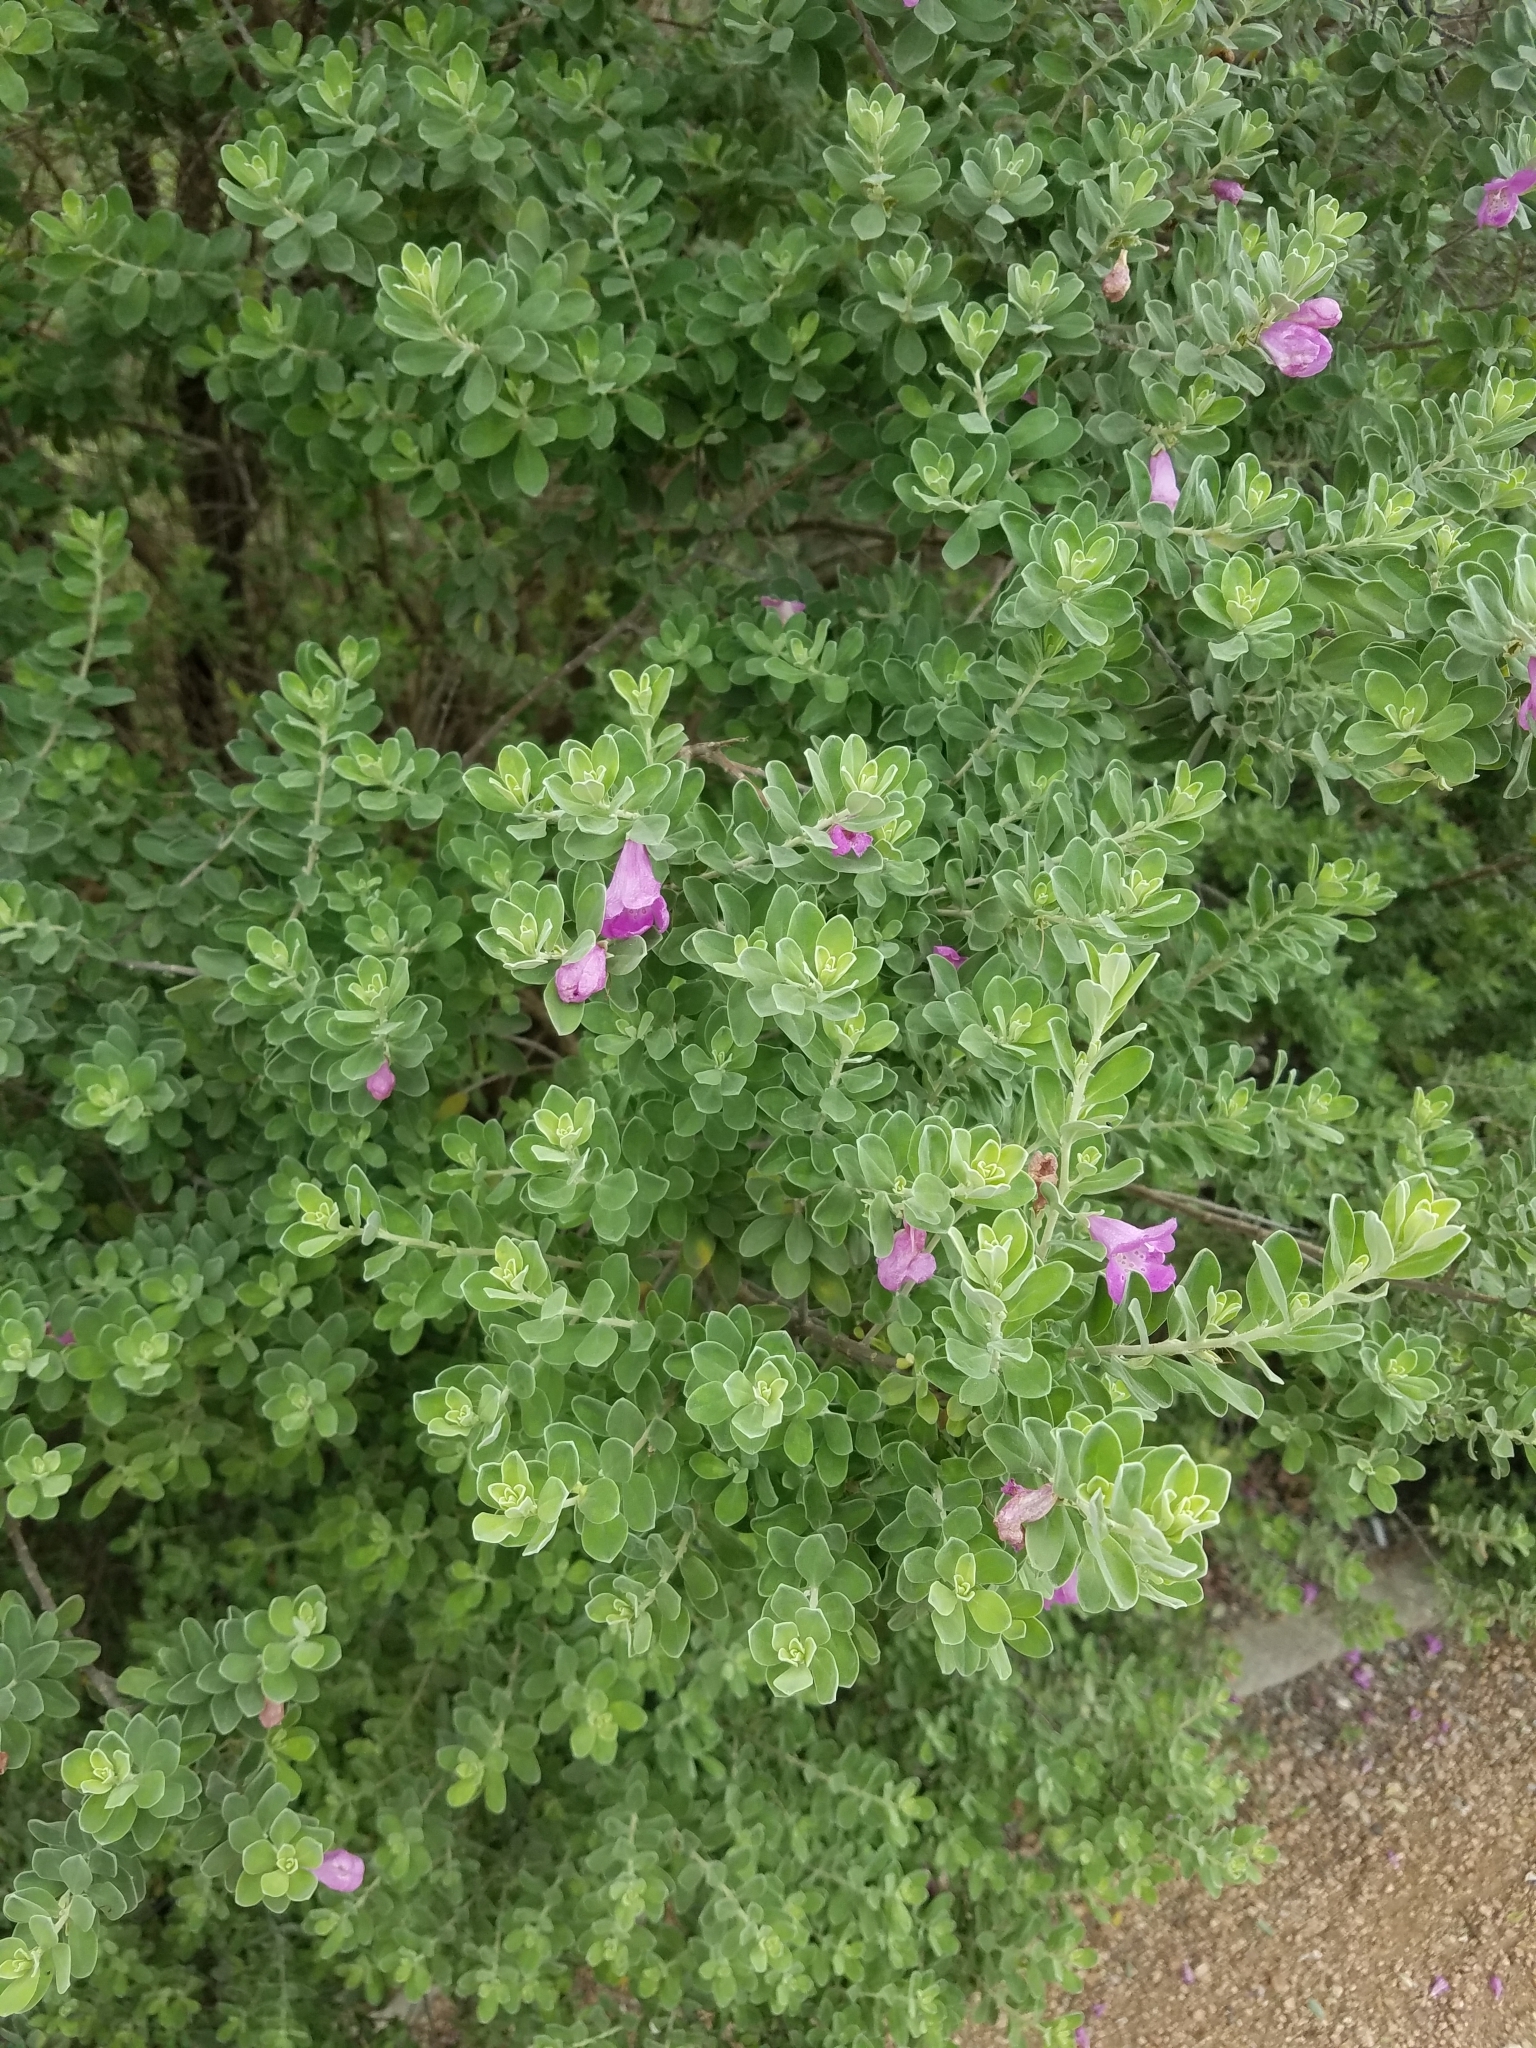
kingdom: Plantae
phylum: Tracheophyta
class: Magnoliopsida
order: Lamiales
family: Scrophulariaceae
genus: Leucophyllum
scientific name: Leucophyllum frutescens
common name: Texas silverleaf
